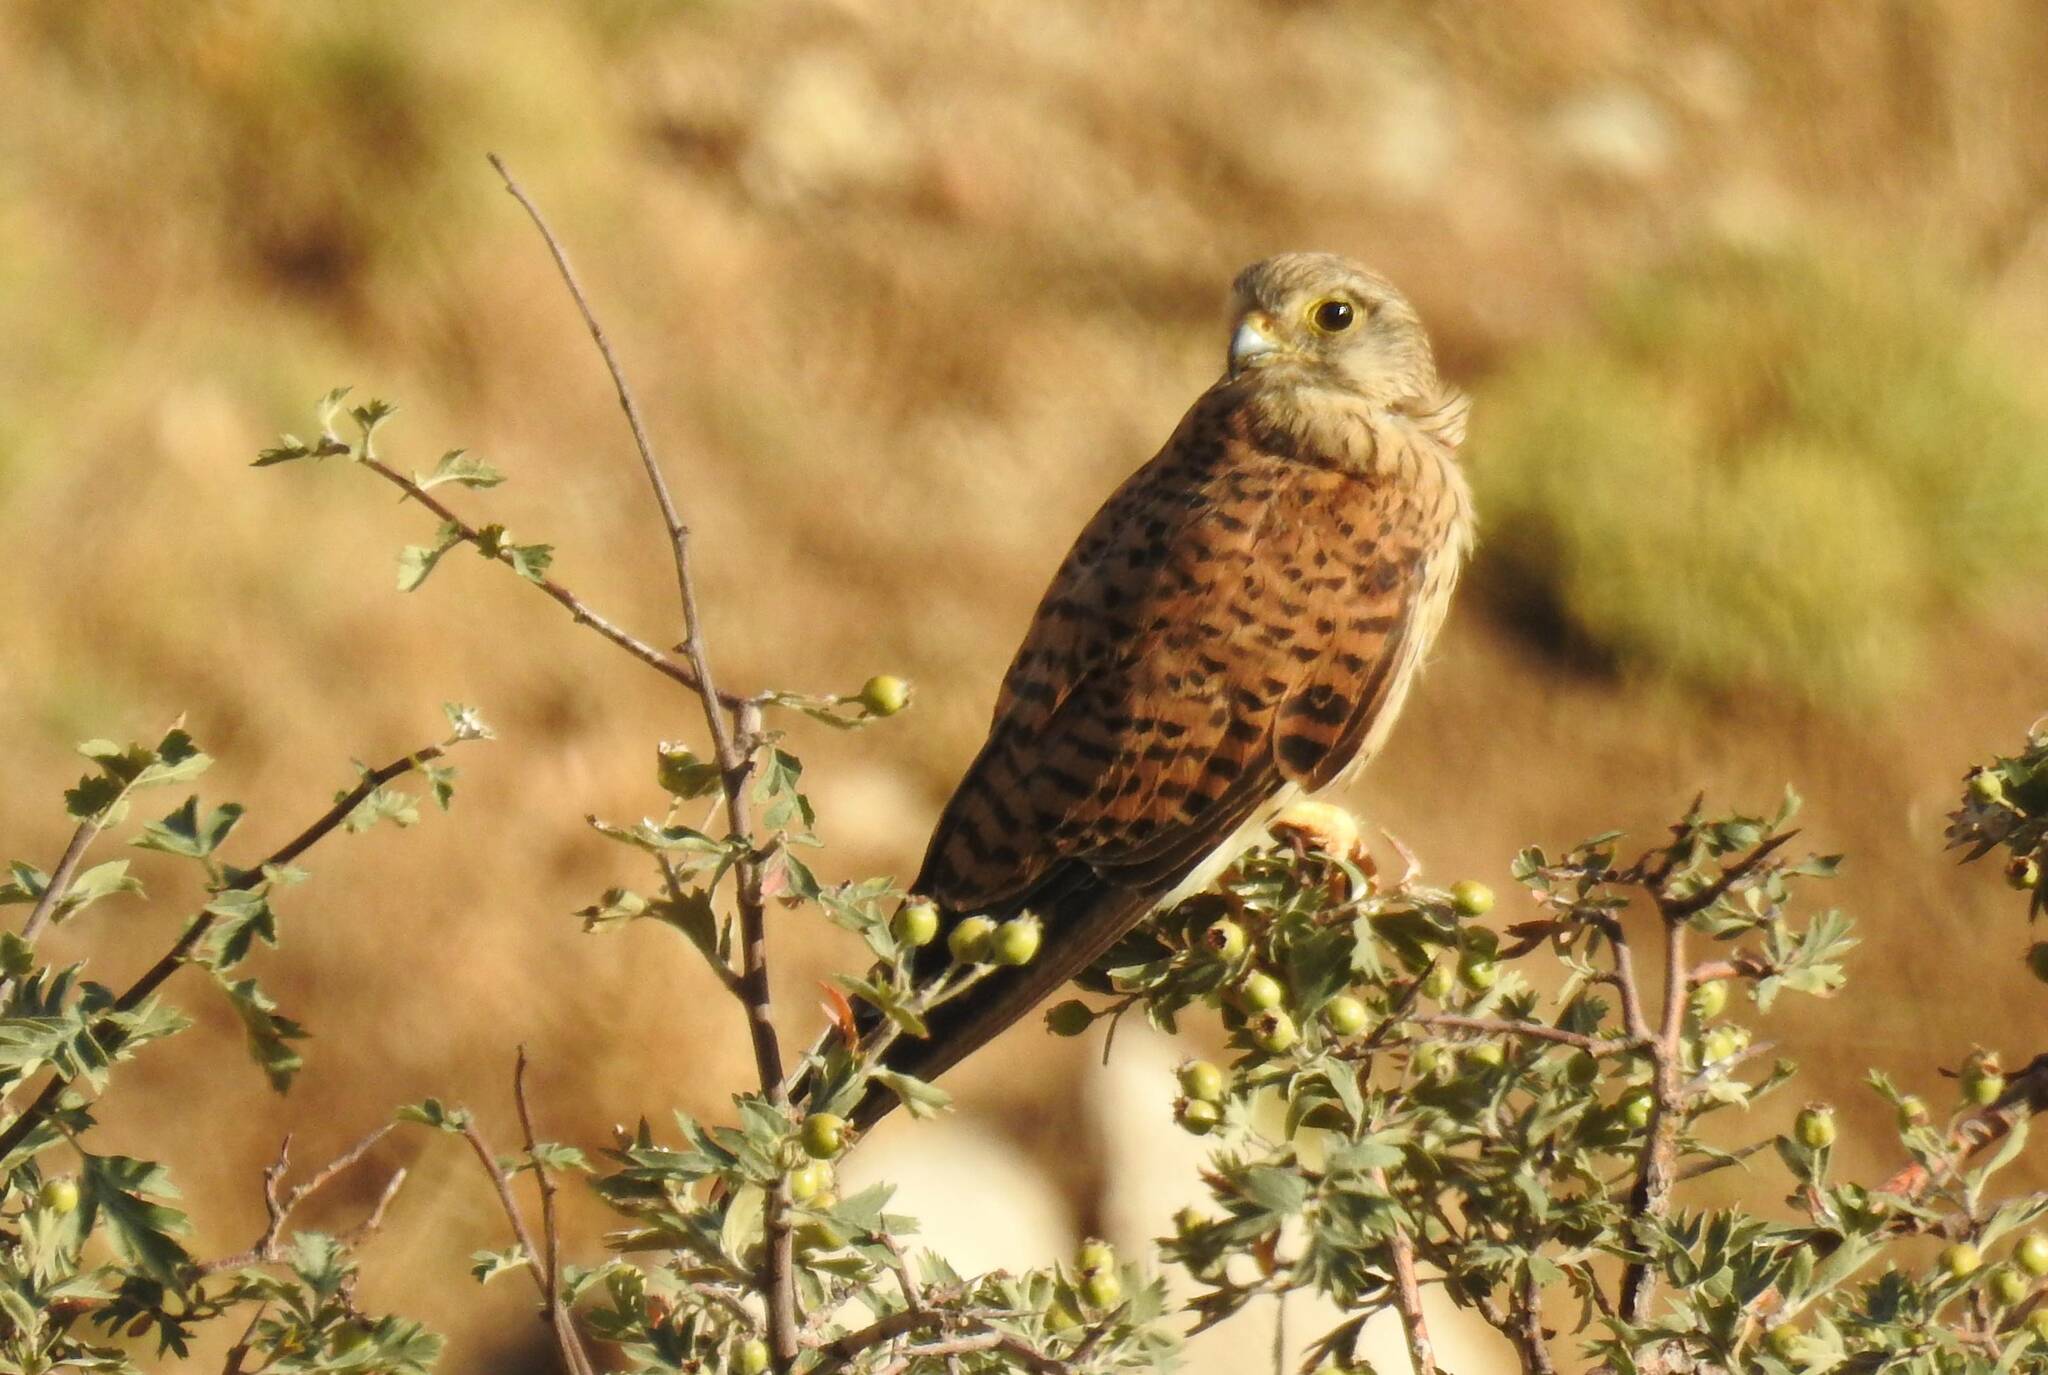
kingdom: Animalia
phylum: Chordata
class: Aves
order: Falconiformes
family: Falconidae
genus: Falco
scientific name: Falco tinnunculus
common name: Common kestrel
